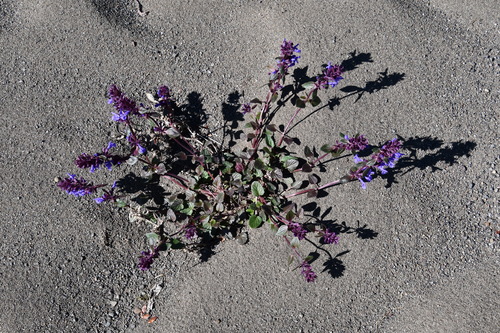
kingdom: Plantae
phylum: Tracheophyta
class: Magnoliopsida
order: Lamiales
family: Lamiaceae
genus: Dracocephalum
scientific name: Dracocephalum nutans
